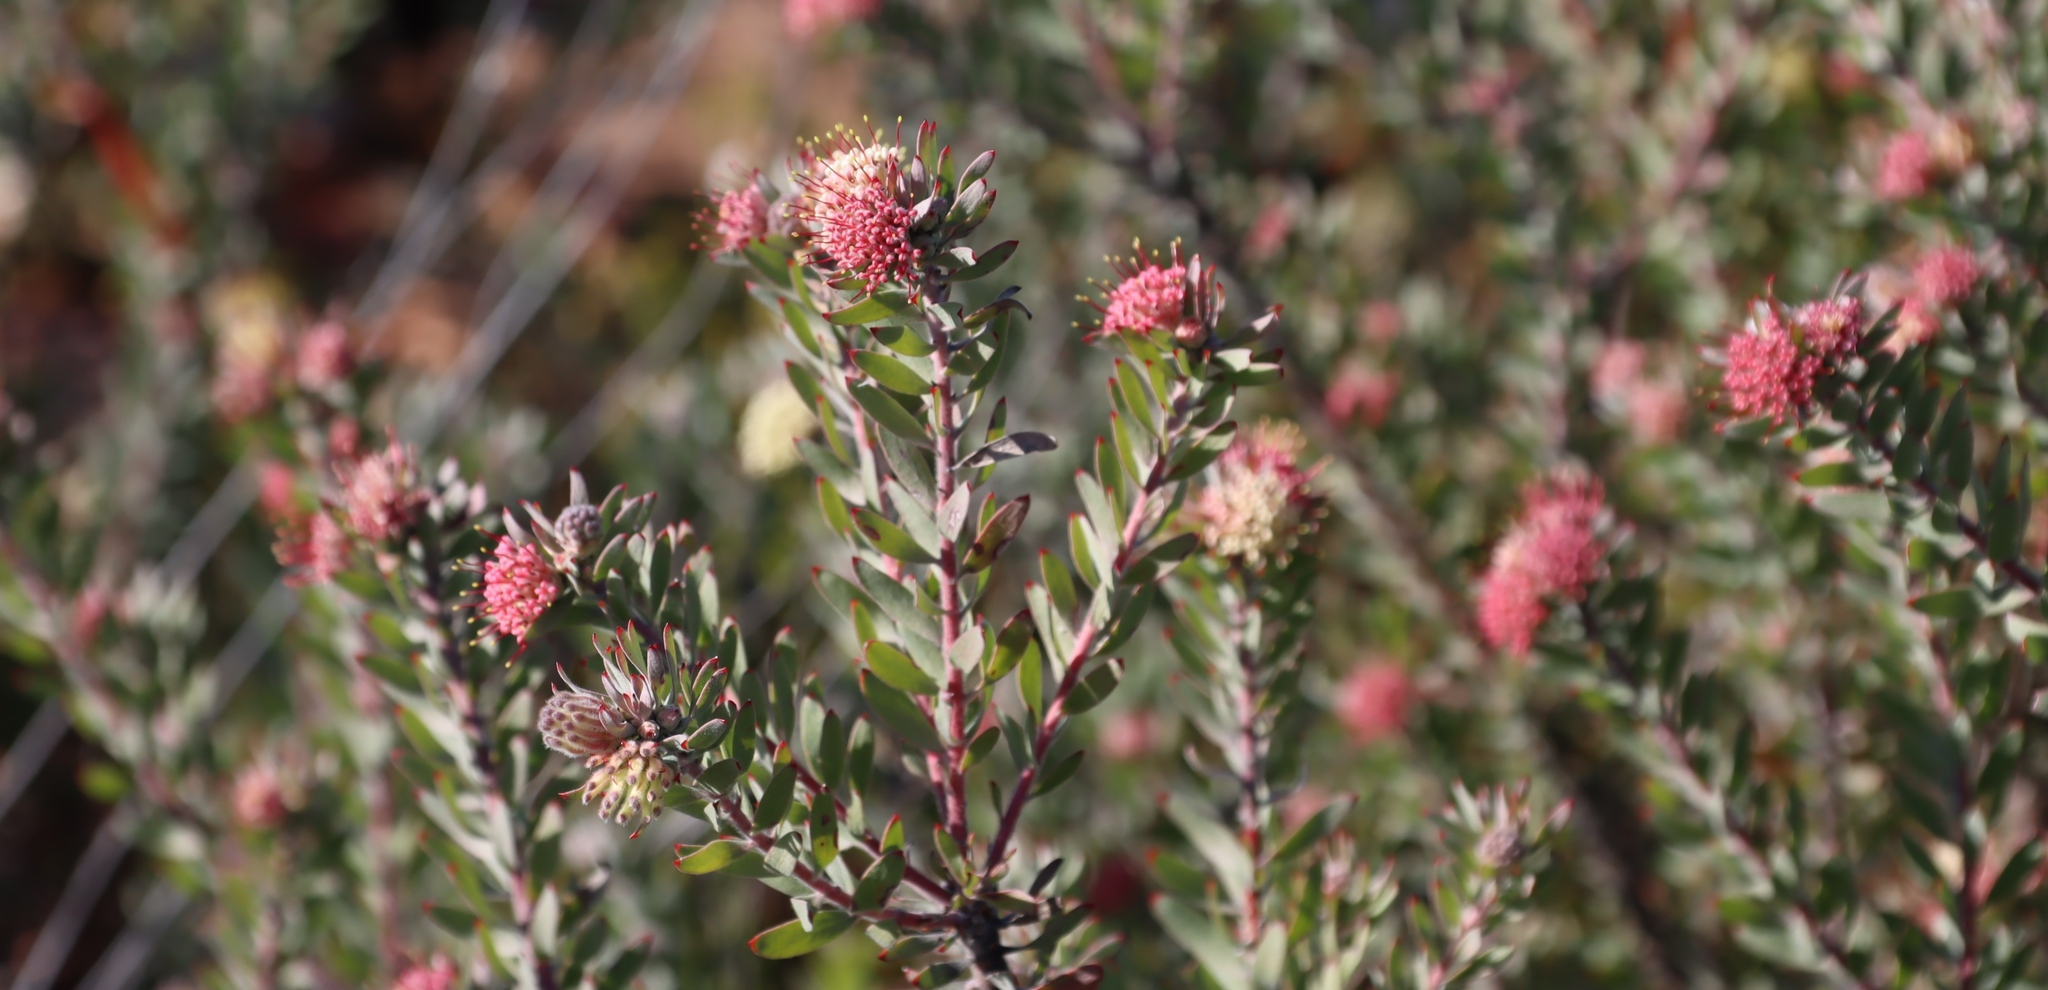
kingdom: Plantae
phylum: Tracheophyta
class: Magnoliopsida
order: Proteales
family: Proteaceae
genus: Leucospermum
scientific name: Leucospermum wittebergense
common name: Swartberg pincushion
